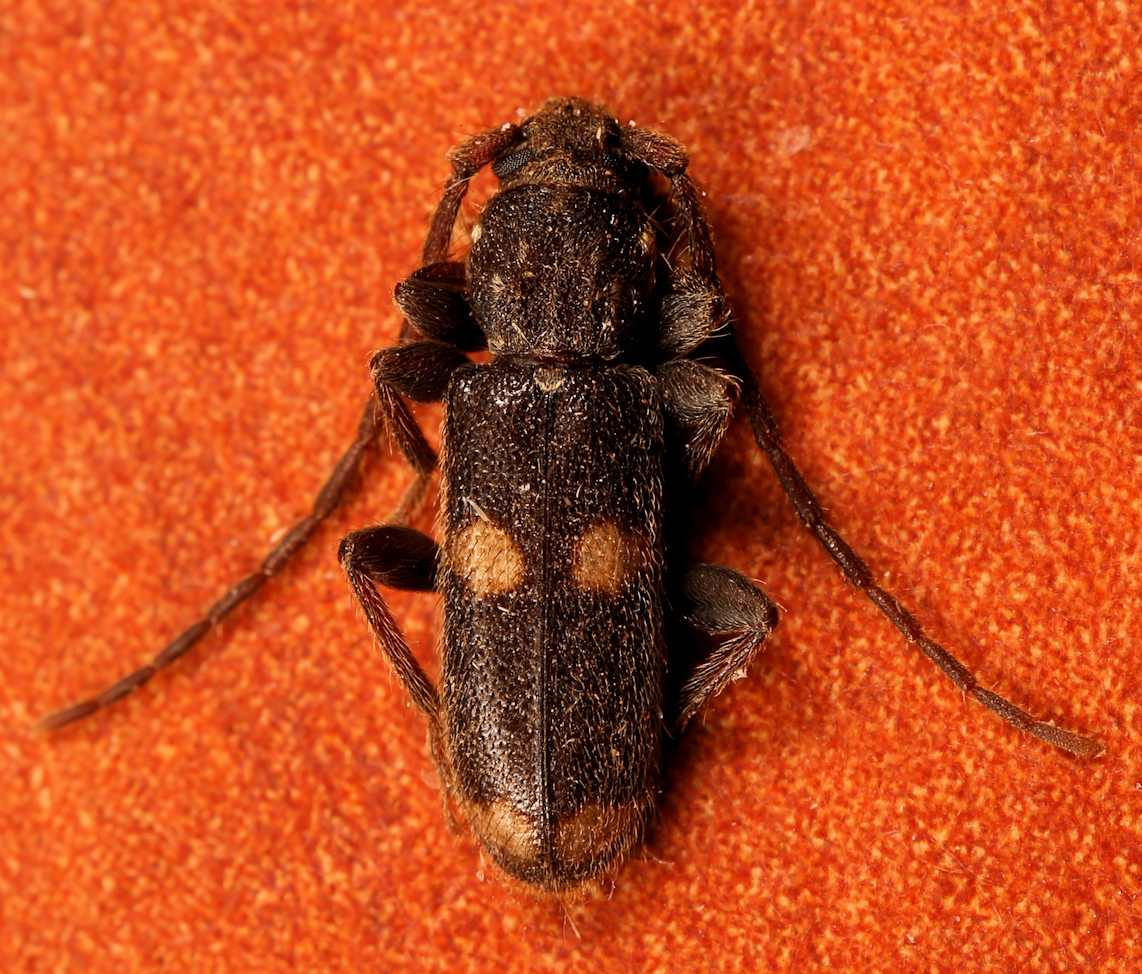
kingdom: Animalia
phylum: Arthropoda
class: Insecta
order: Coleoptera
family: Cerambycidae
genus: Zamium
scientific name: Zamium bimaculatum
